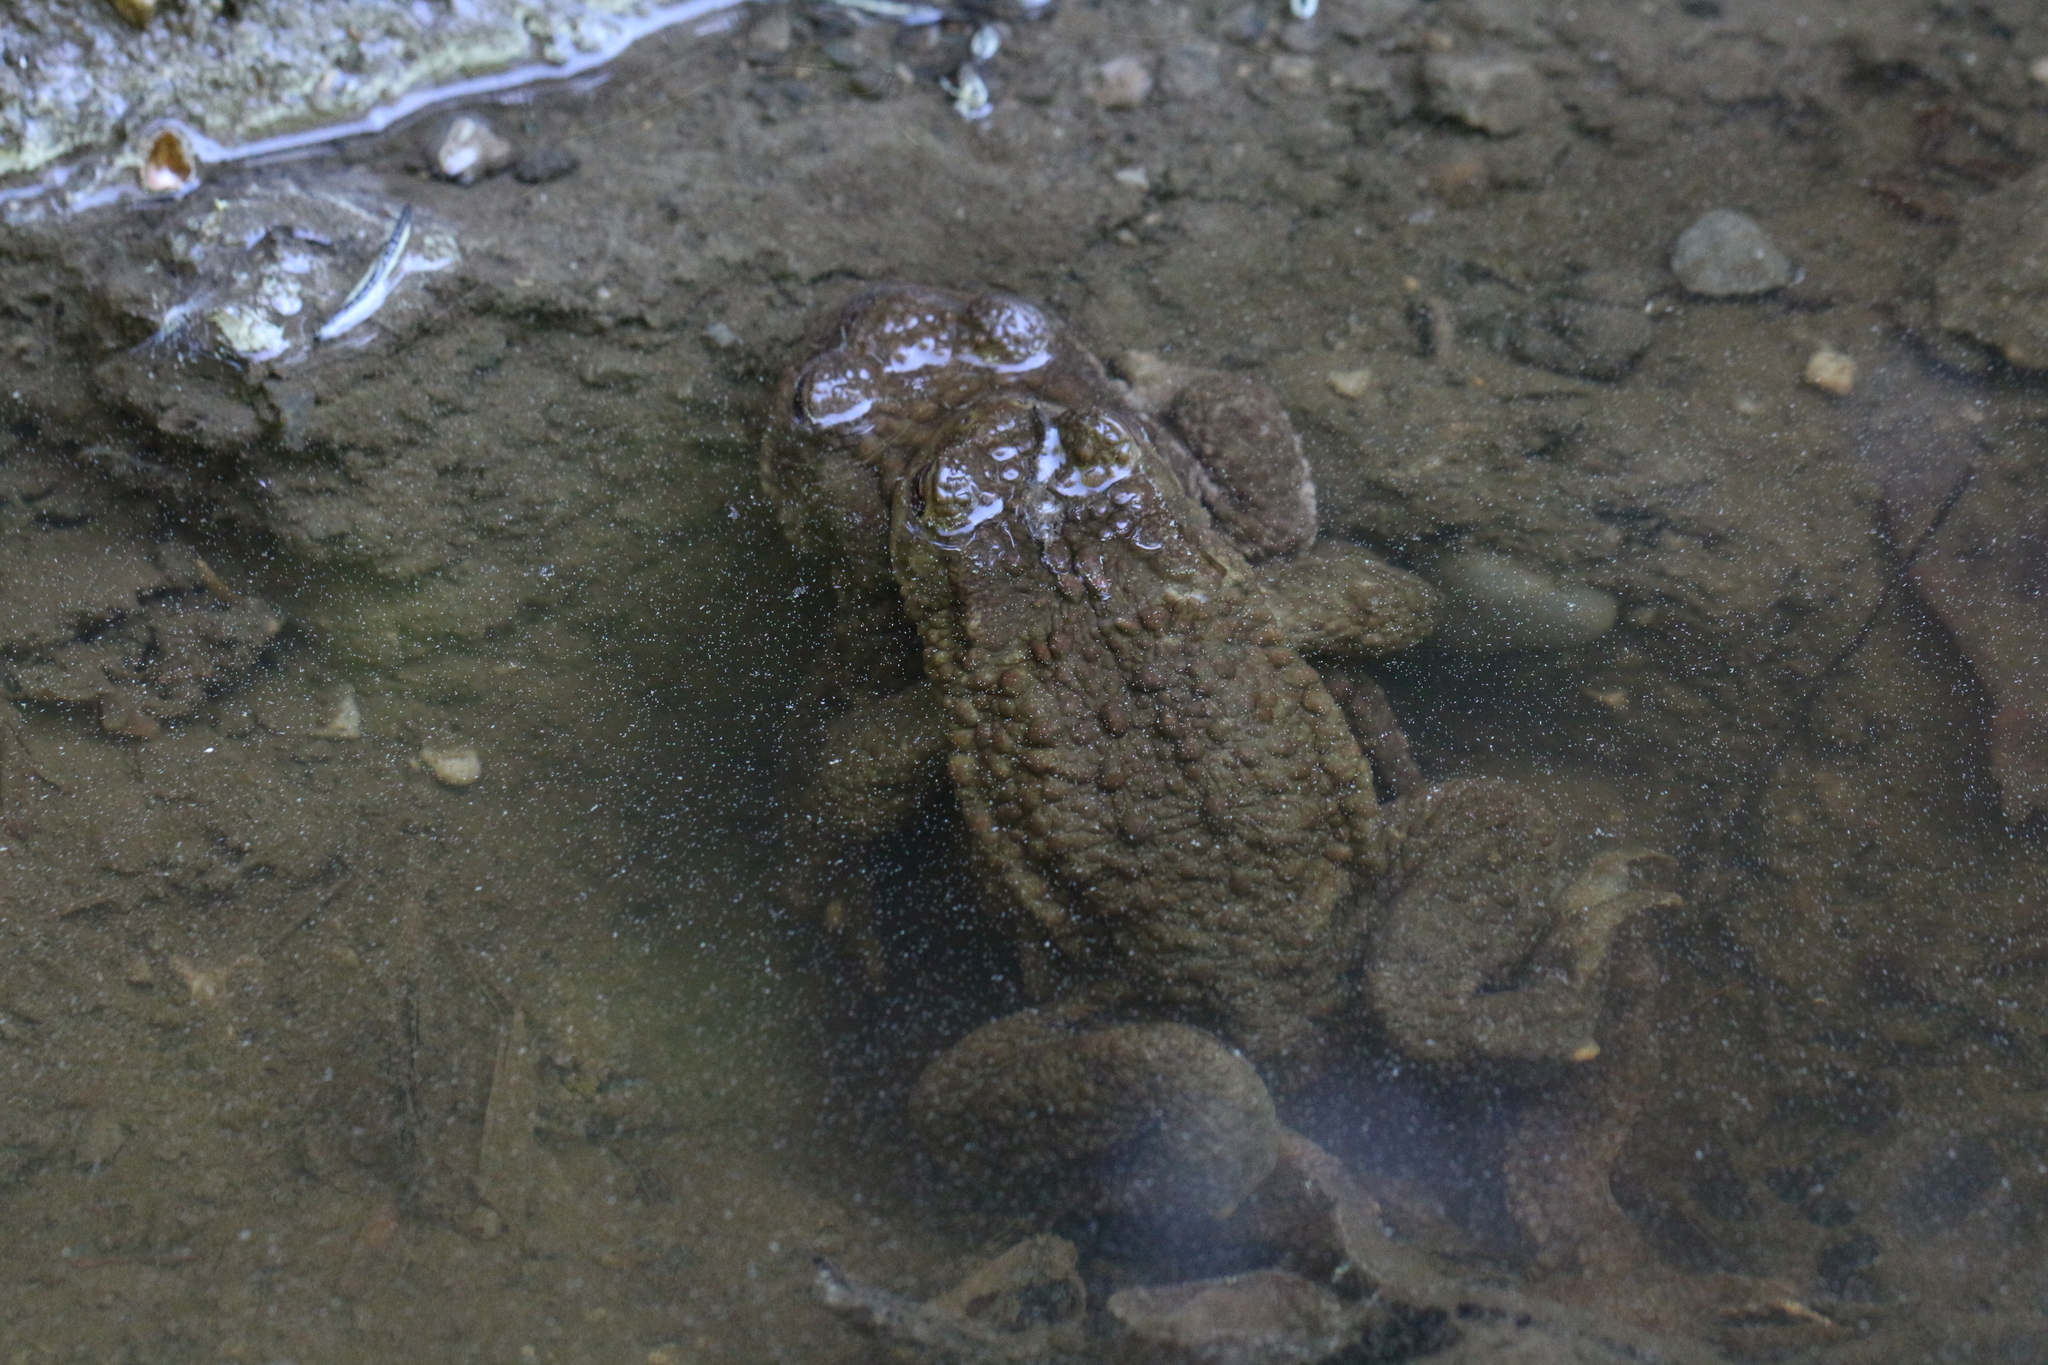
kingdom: Animalia
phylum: Chordata
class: Amphibia
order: Anura
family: Bufonidae
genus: Bufo
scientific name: Bufo bufo
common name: Common toad
